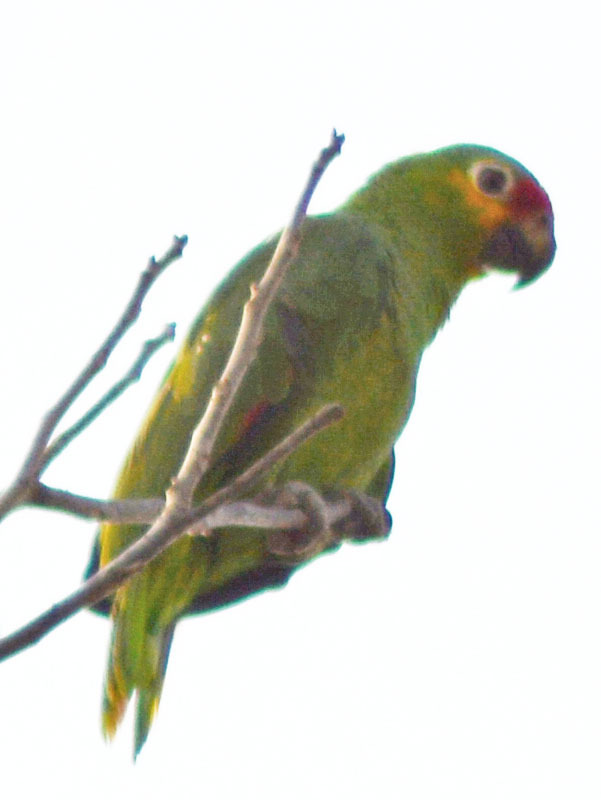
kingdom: Animalia
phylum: Chordata
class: Aves
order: Psittaciformes
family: Psittacidae
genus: Amazona
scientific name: Amazona autumnalis
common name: Red-lored amazon
